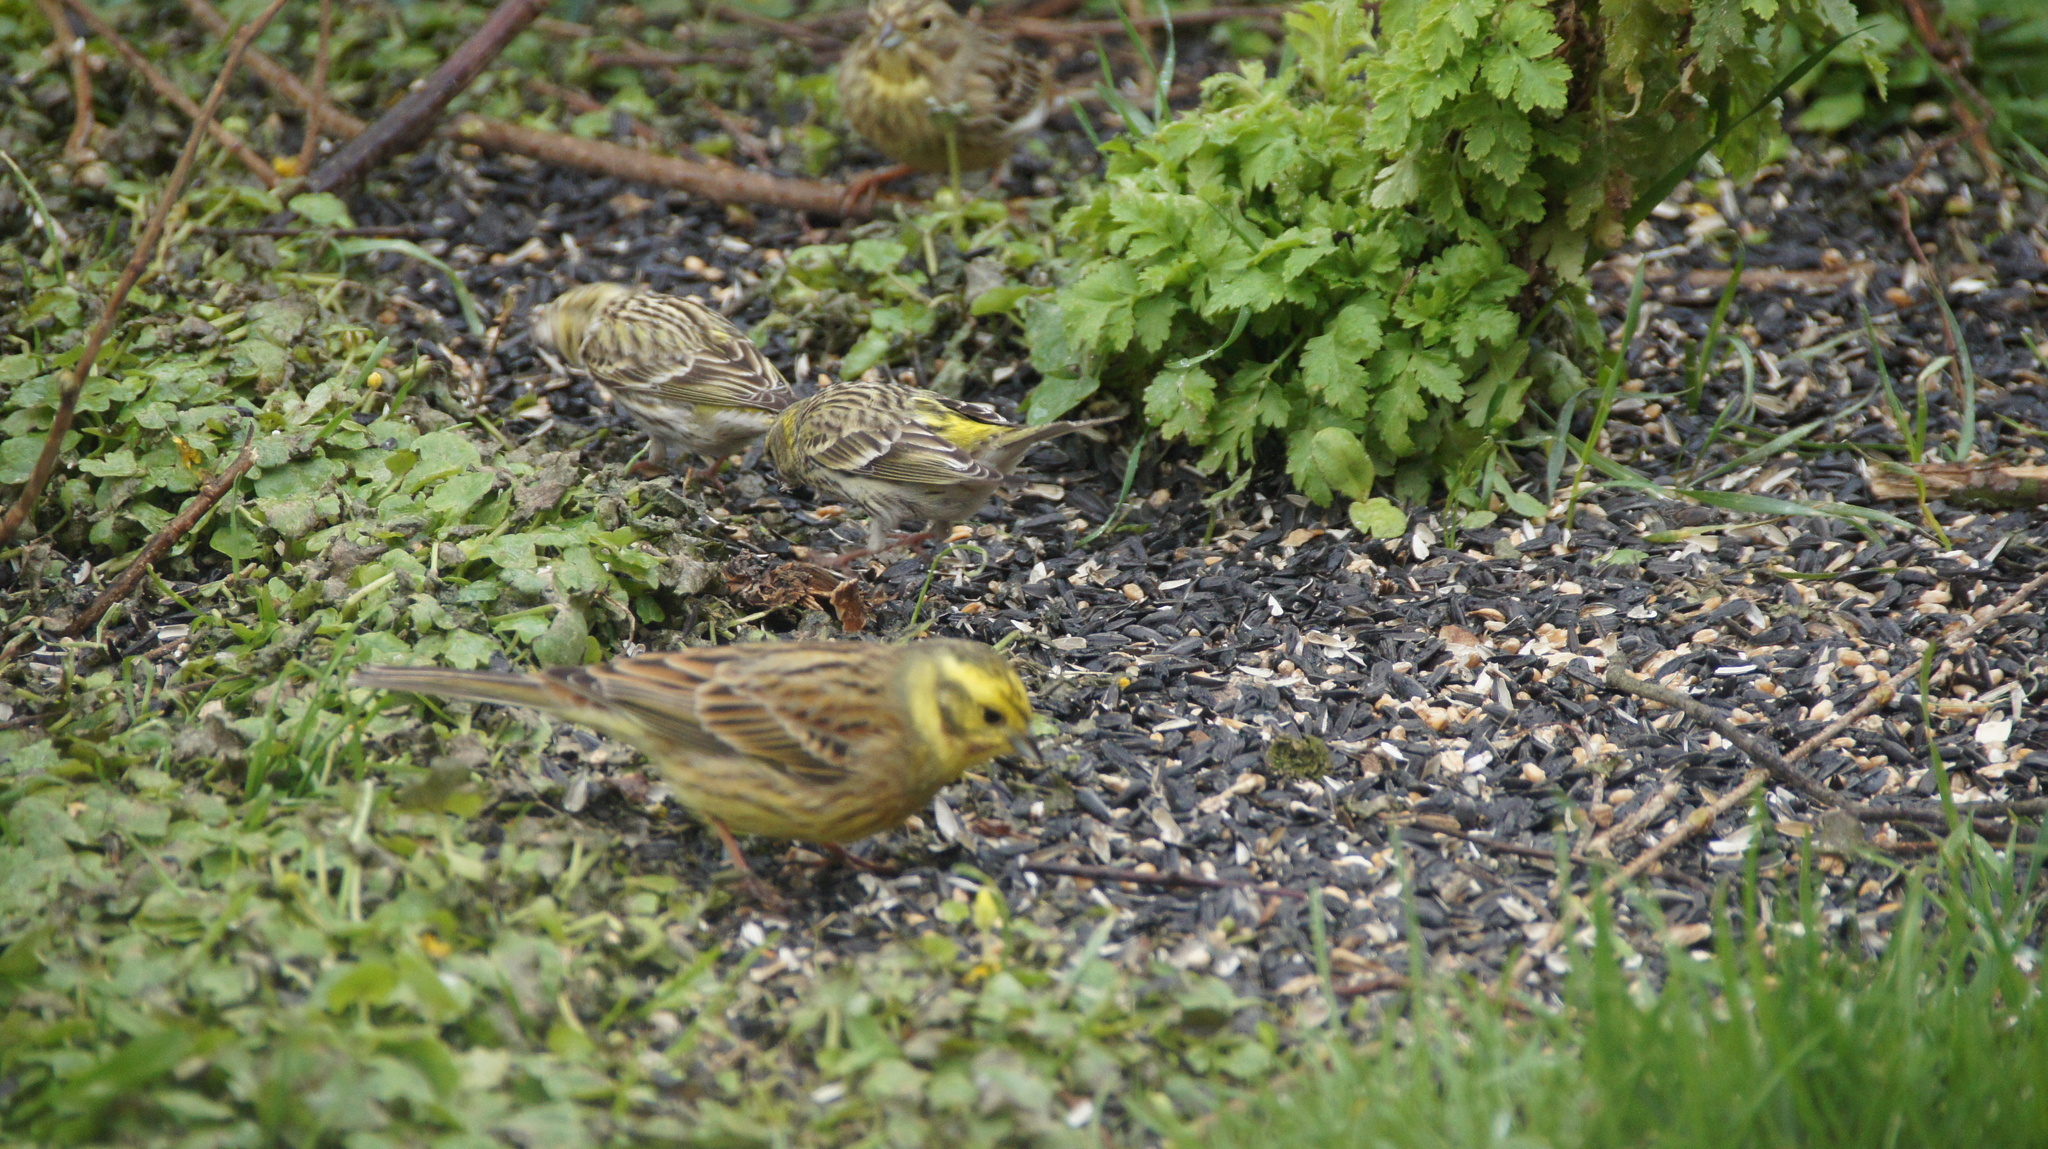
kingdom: Animalia
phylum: Chordata
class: Aves
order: Passeriformes
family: Fringillidae
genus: Serinus
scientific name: Serinus serinus
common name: European serin
